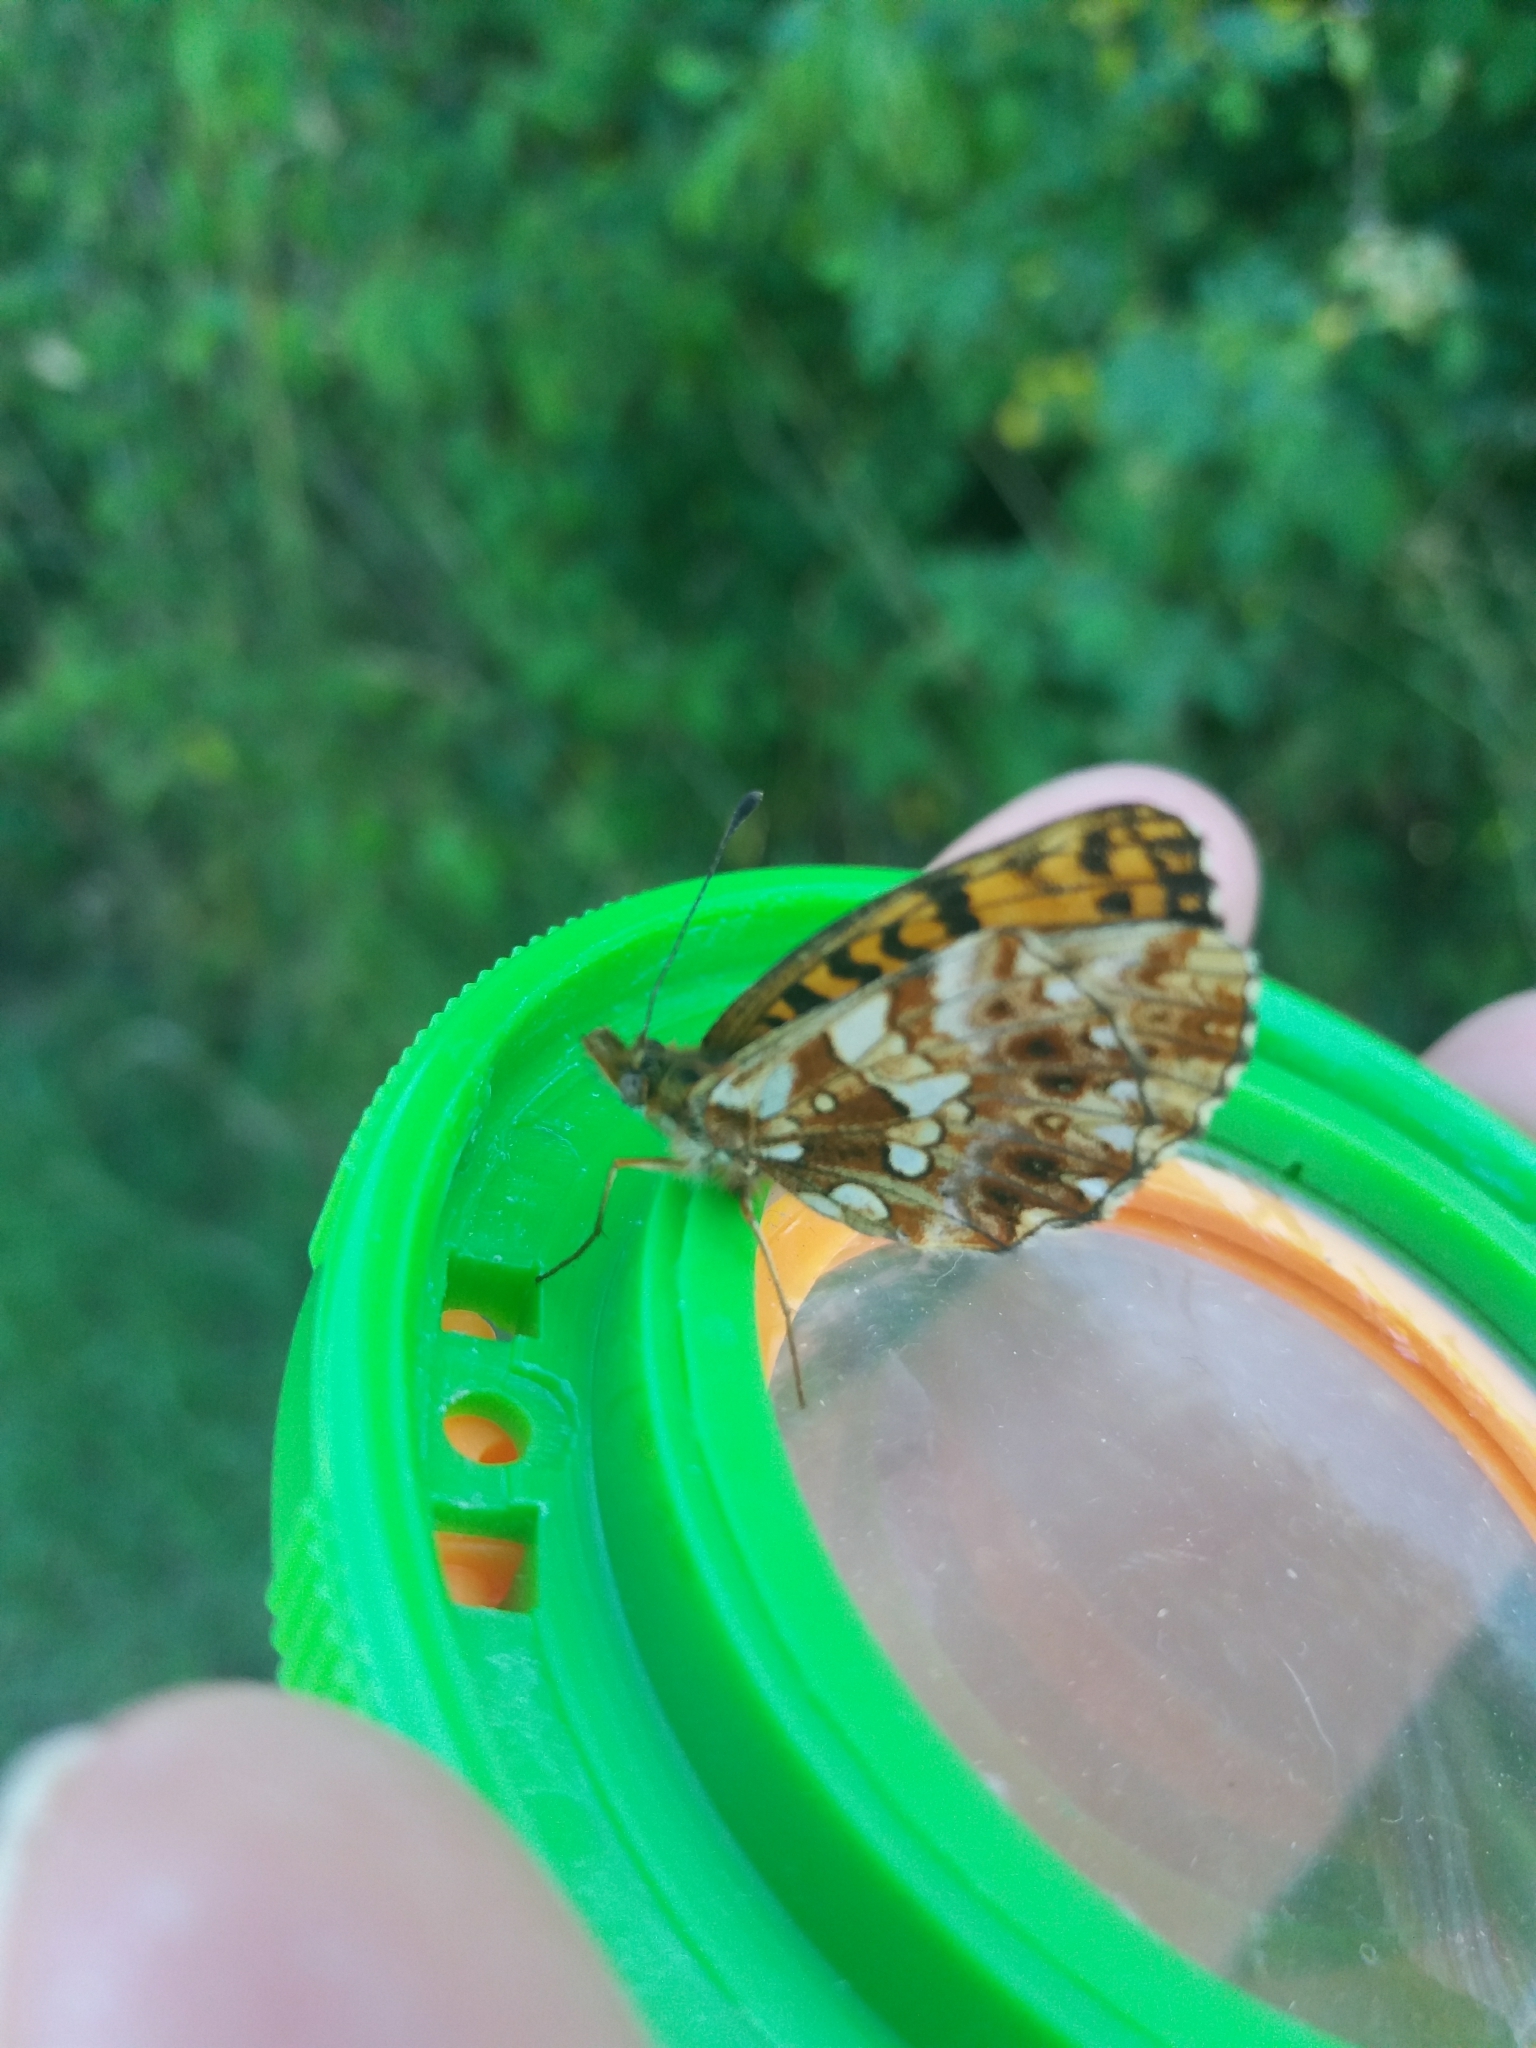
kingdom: Animalia
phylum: Arthropoda
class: Insecta
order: Lepidoptera
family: Nymphalidae
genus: Boloria
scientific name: Boloria dia
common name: Weaver's fritillary
